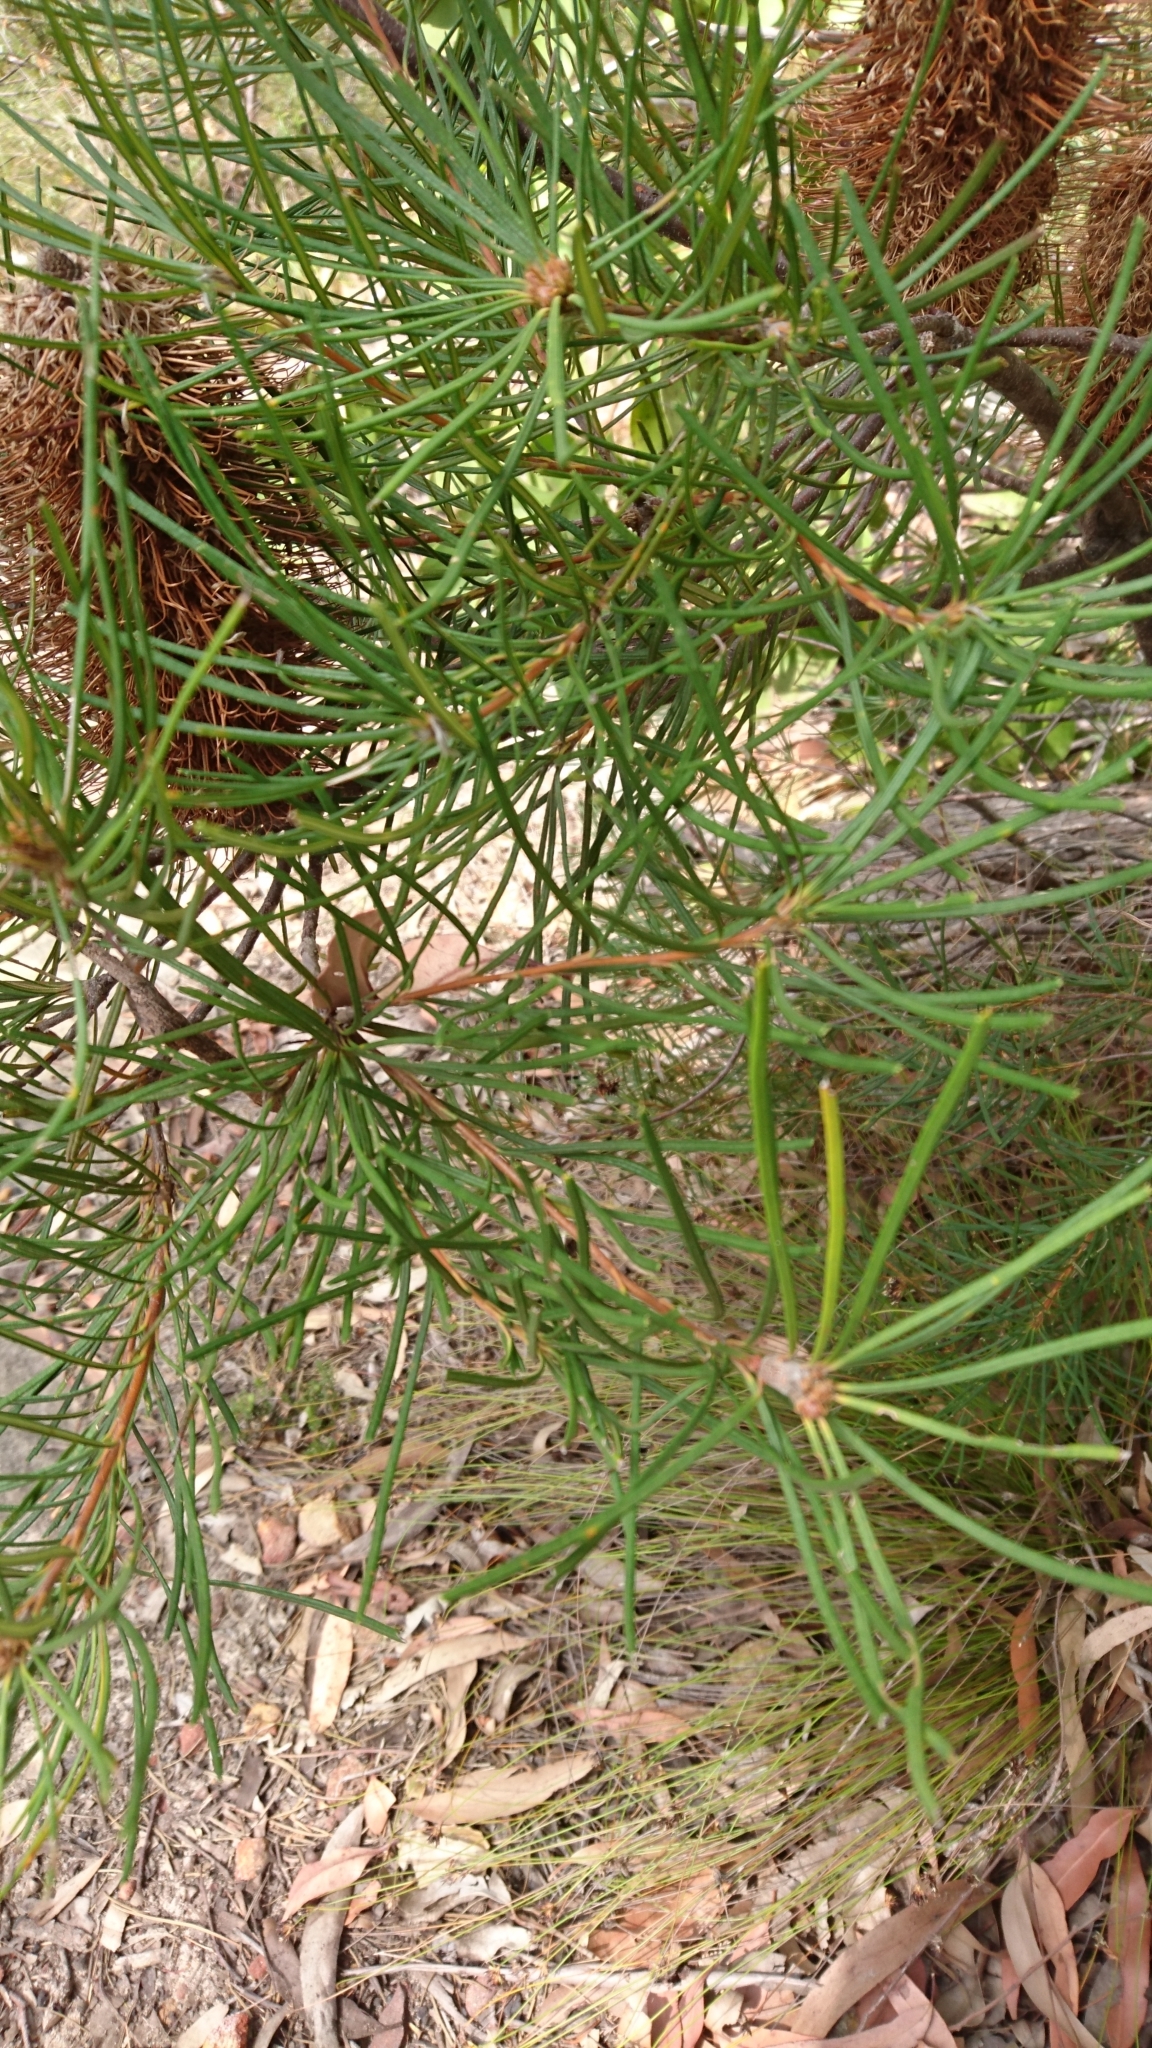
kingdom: Plantae
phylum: Tracheophyta
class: Magnoliopsida
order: Proteales
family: Proteaceae
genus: Banksia
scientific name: Banksia spinulosa
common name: Hairpin banksia
